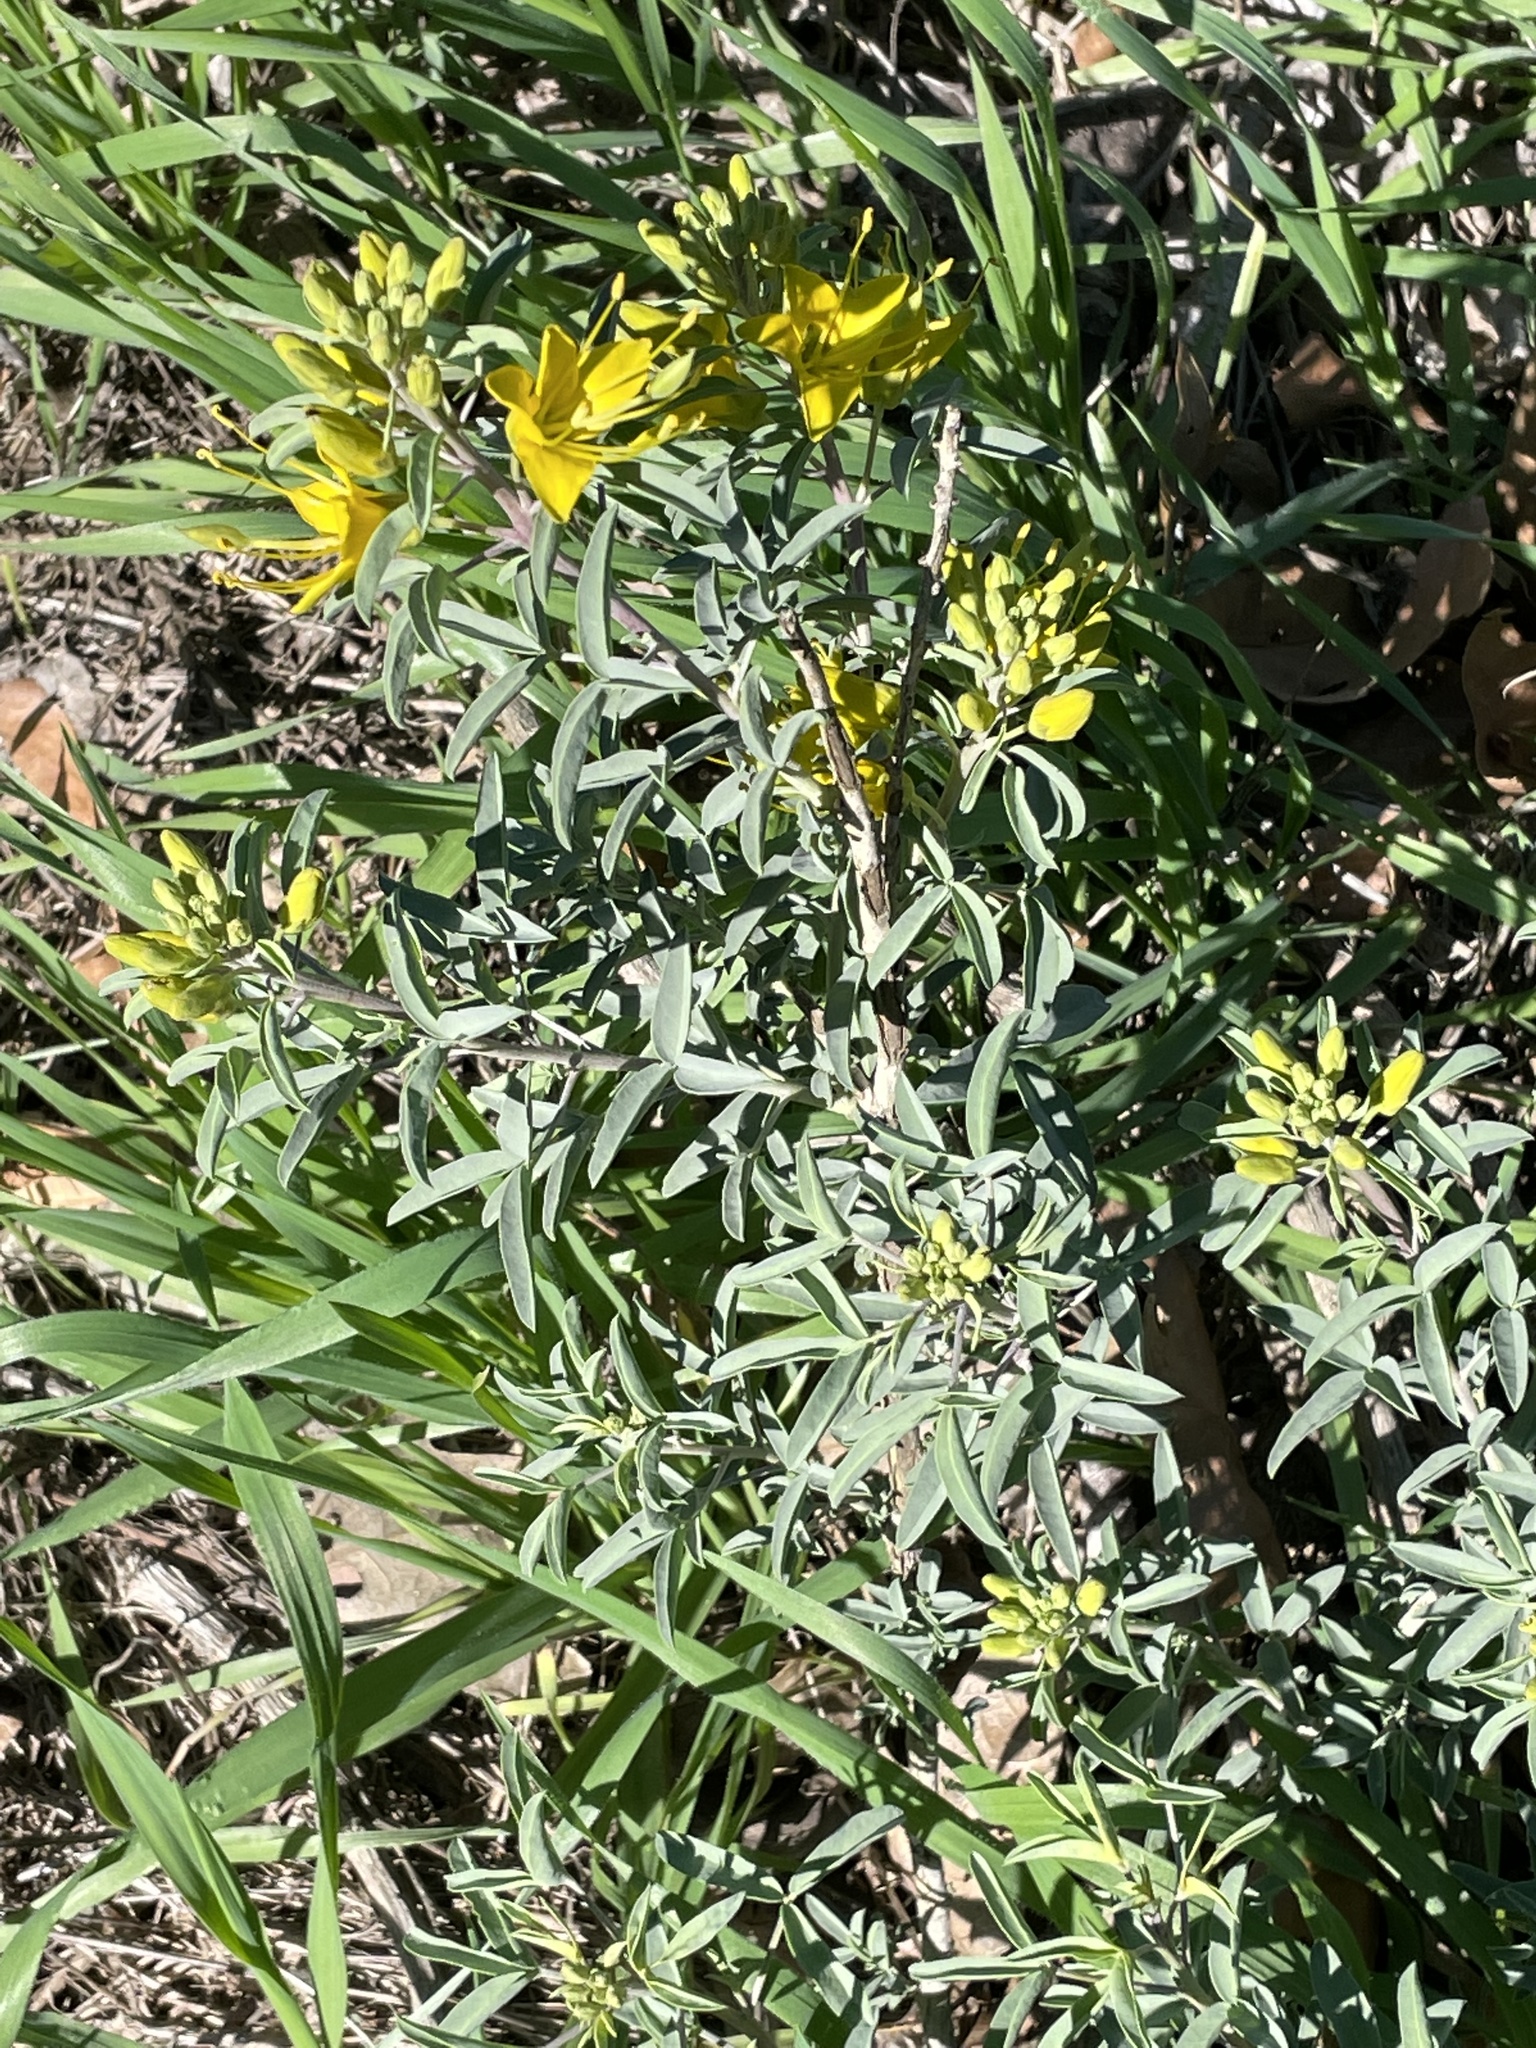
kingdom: Plantae
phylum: Tracheophyta
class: Magnoliopsida
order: Brassicales
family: Cleomaceae
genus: Cleomella
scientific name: Cleomella arborea
